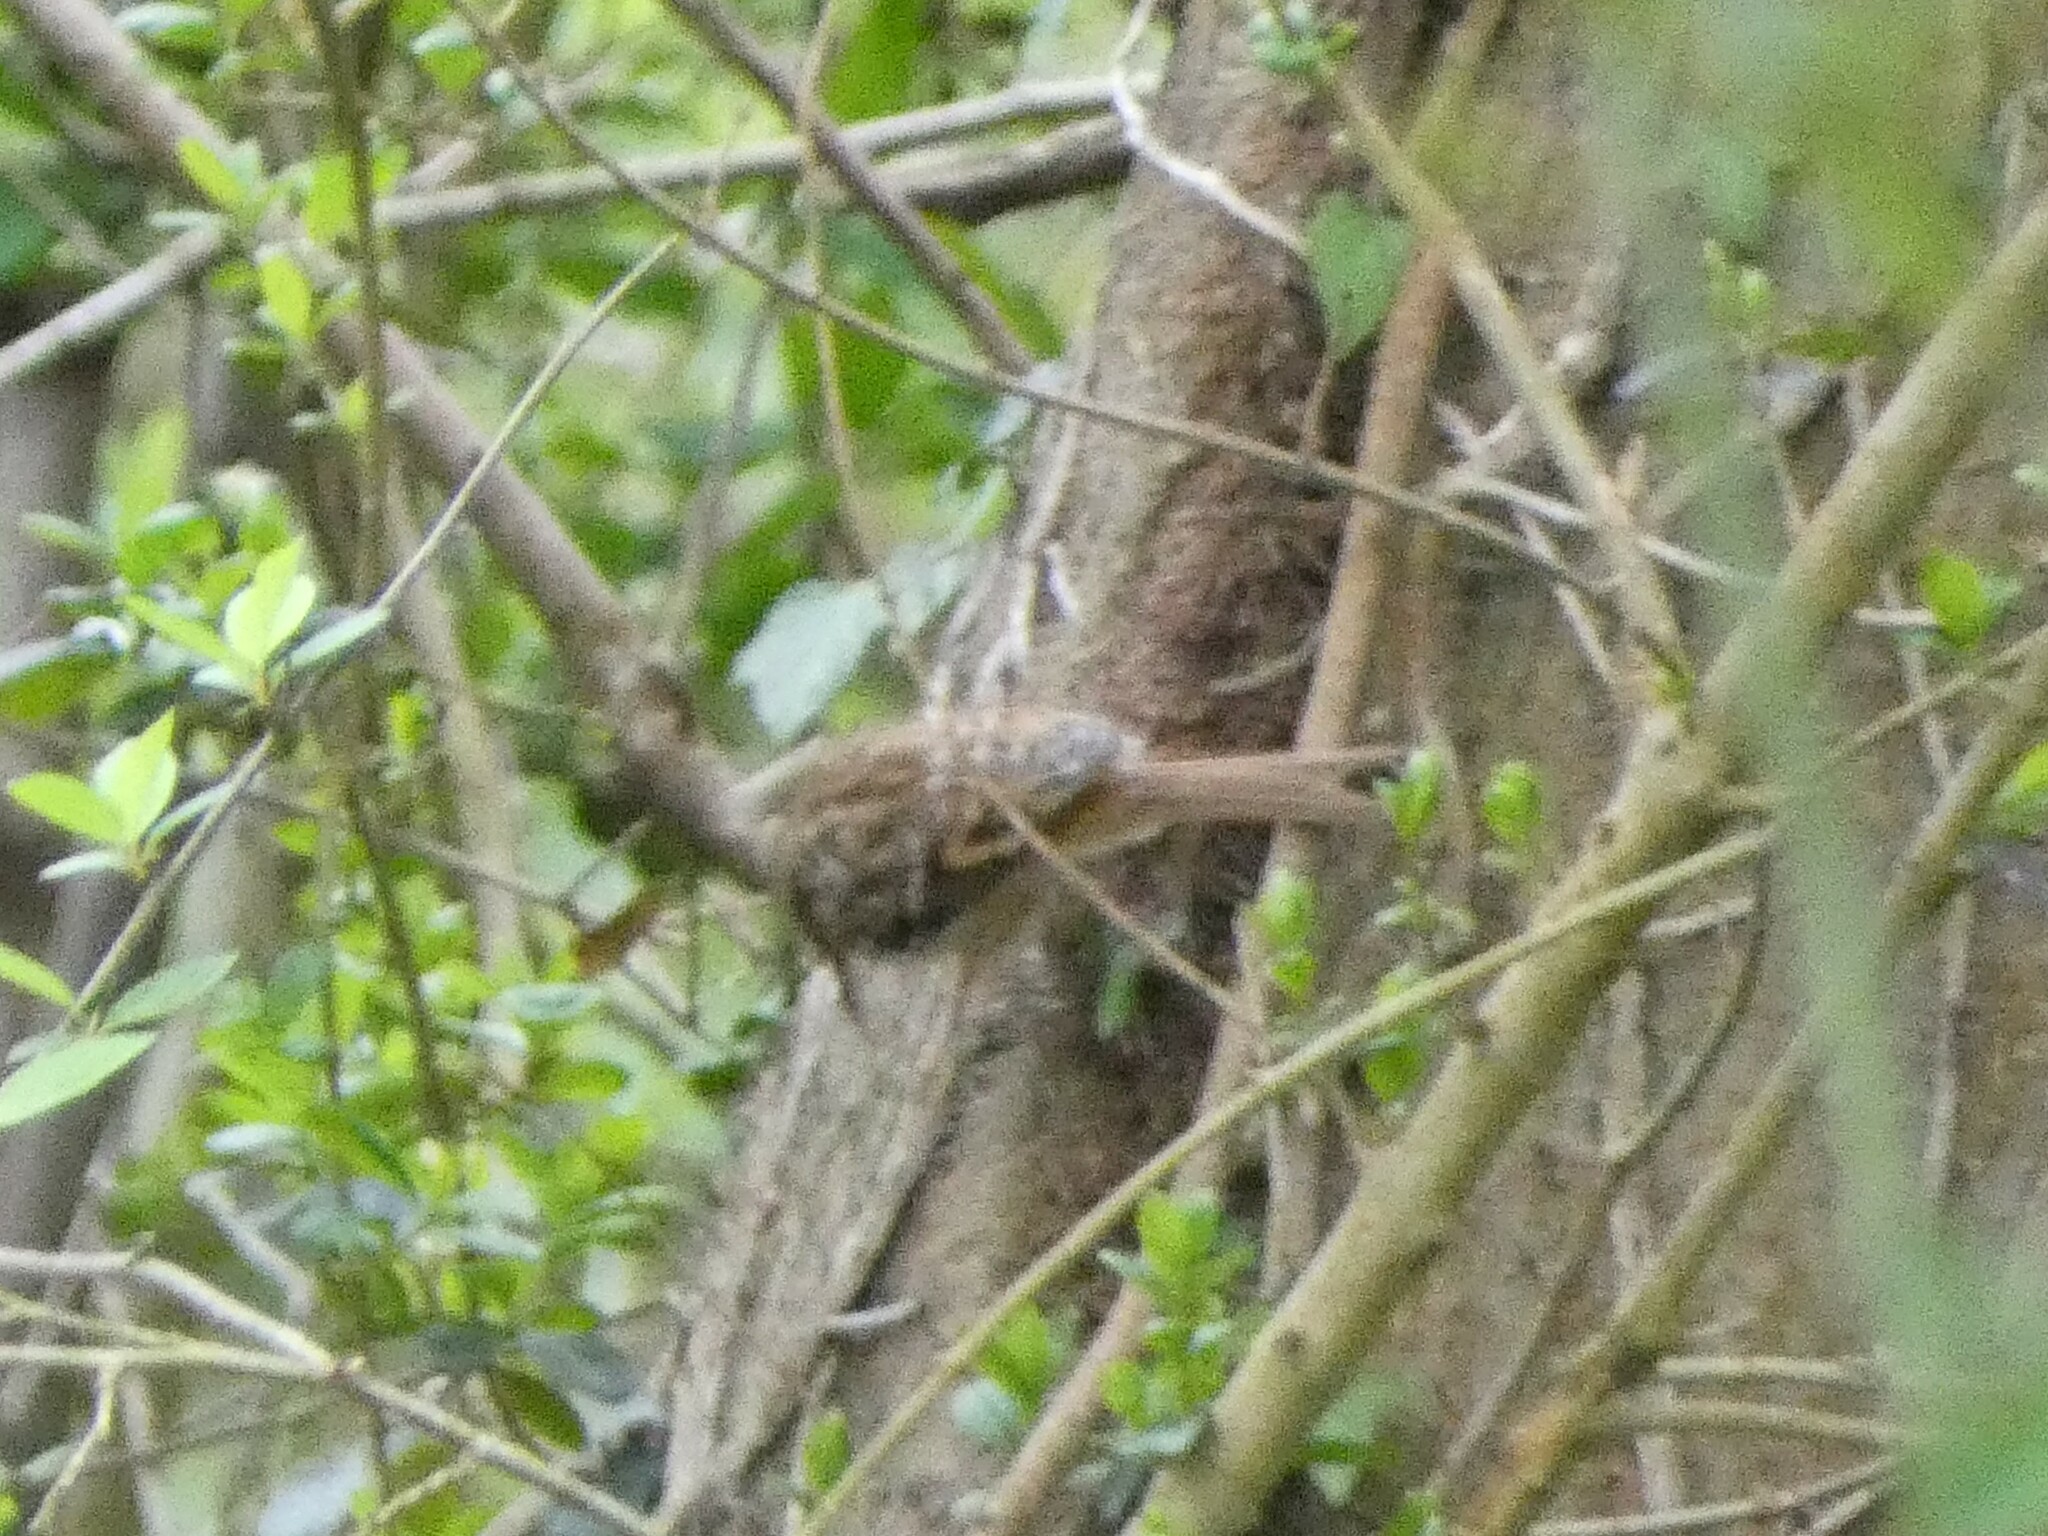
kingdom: Animalia
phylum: Chordata
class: Aves
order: Passeriformes
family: Certhiidae
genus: Certhia
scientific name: Certhia brachydactyla
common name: Short-toed treecreeper
